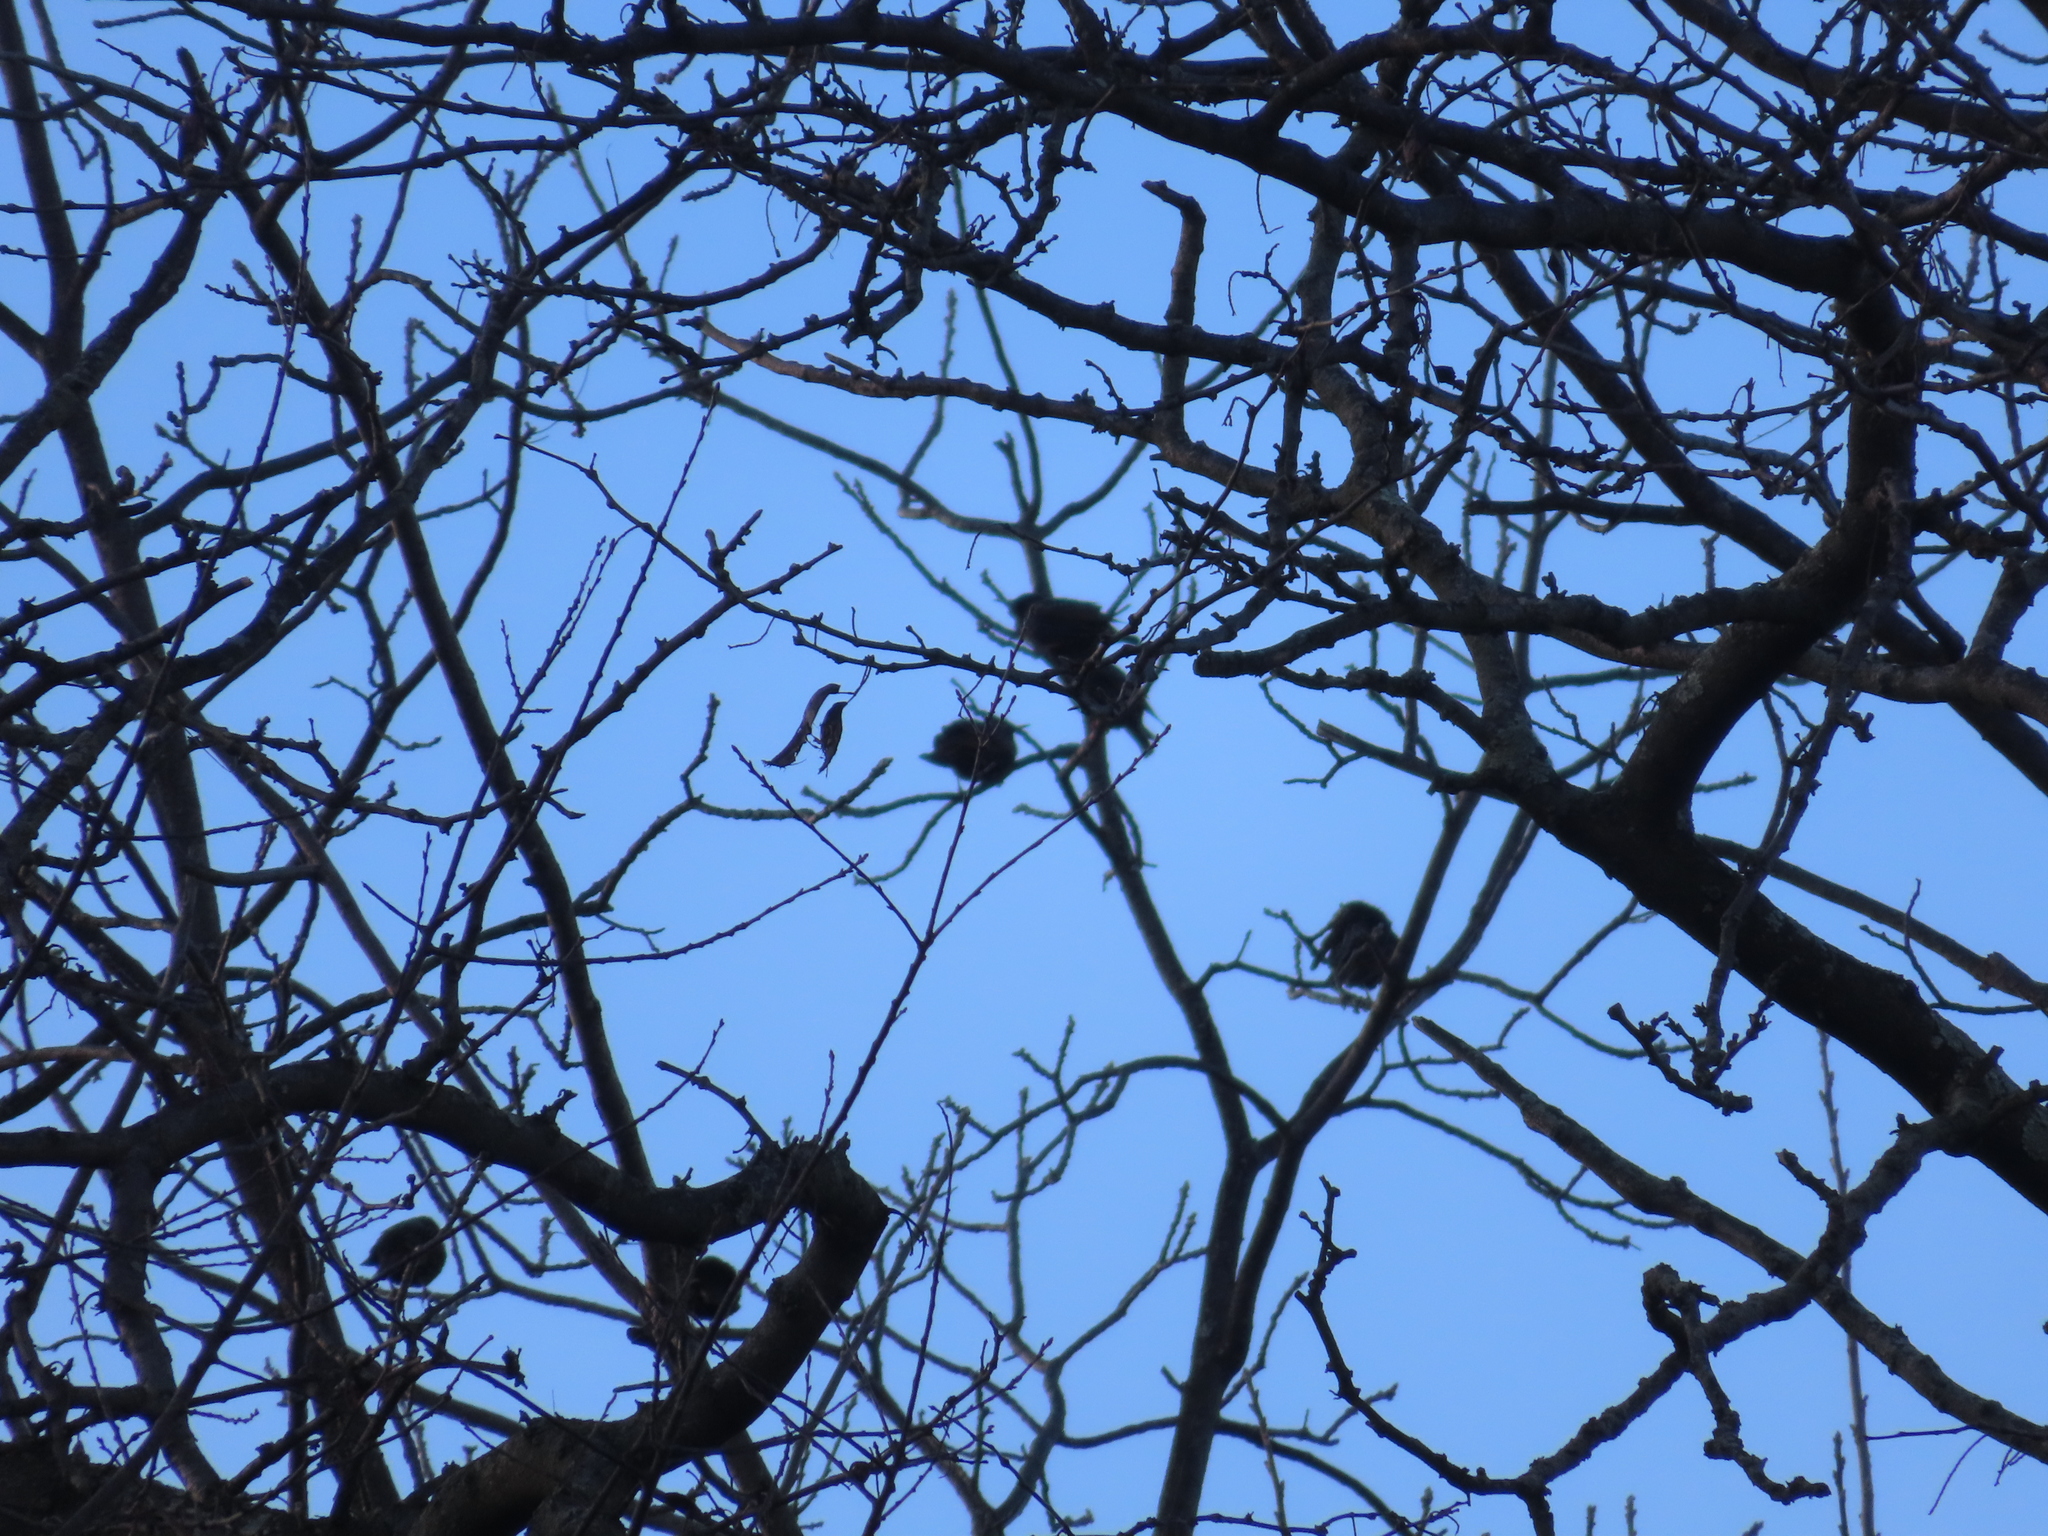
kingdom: Animalia
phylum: Chordata
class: Aves
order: Passeriformes
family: Sturnidae
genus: Sturnus
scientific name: Sturnus vulgaris
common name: Common starling
